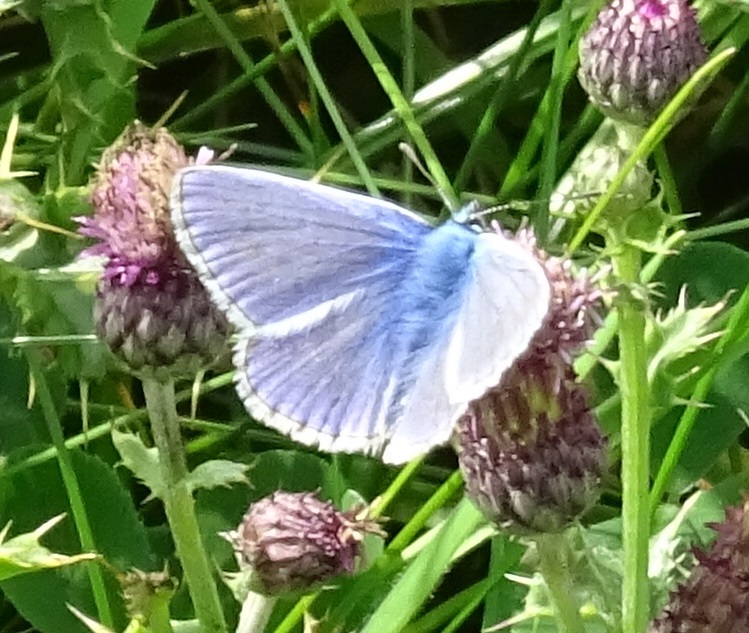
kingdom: Animalia
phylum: Arthropoda
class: Insecta
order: Lepidoptera
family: Lycaenidae
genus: Polyommatus
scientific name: Polyommatus icarus
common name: Common blue
